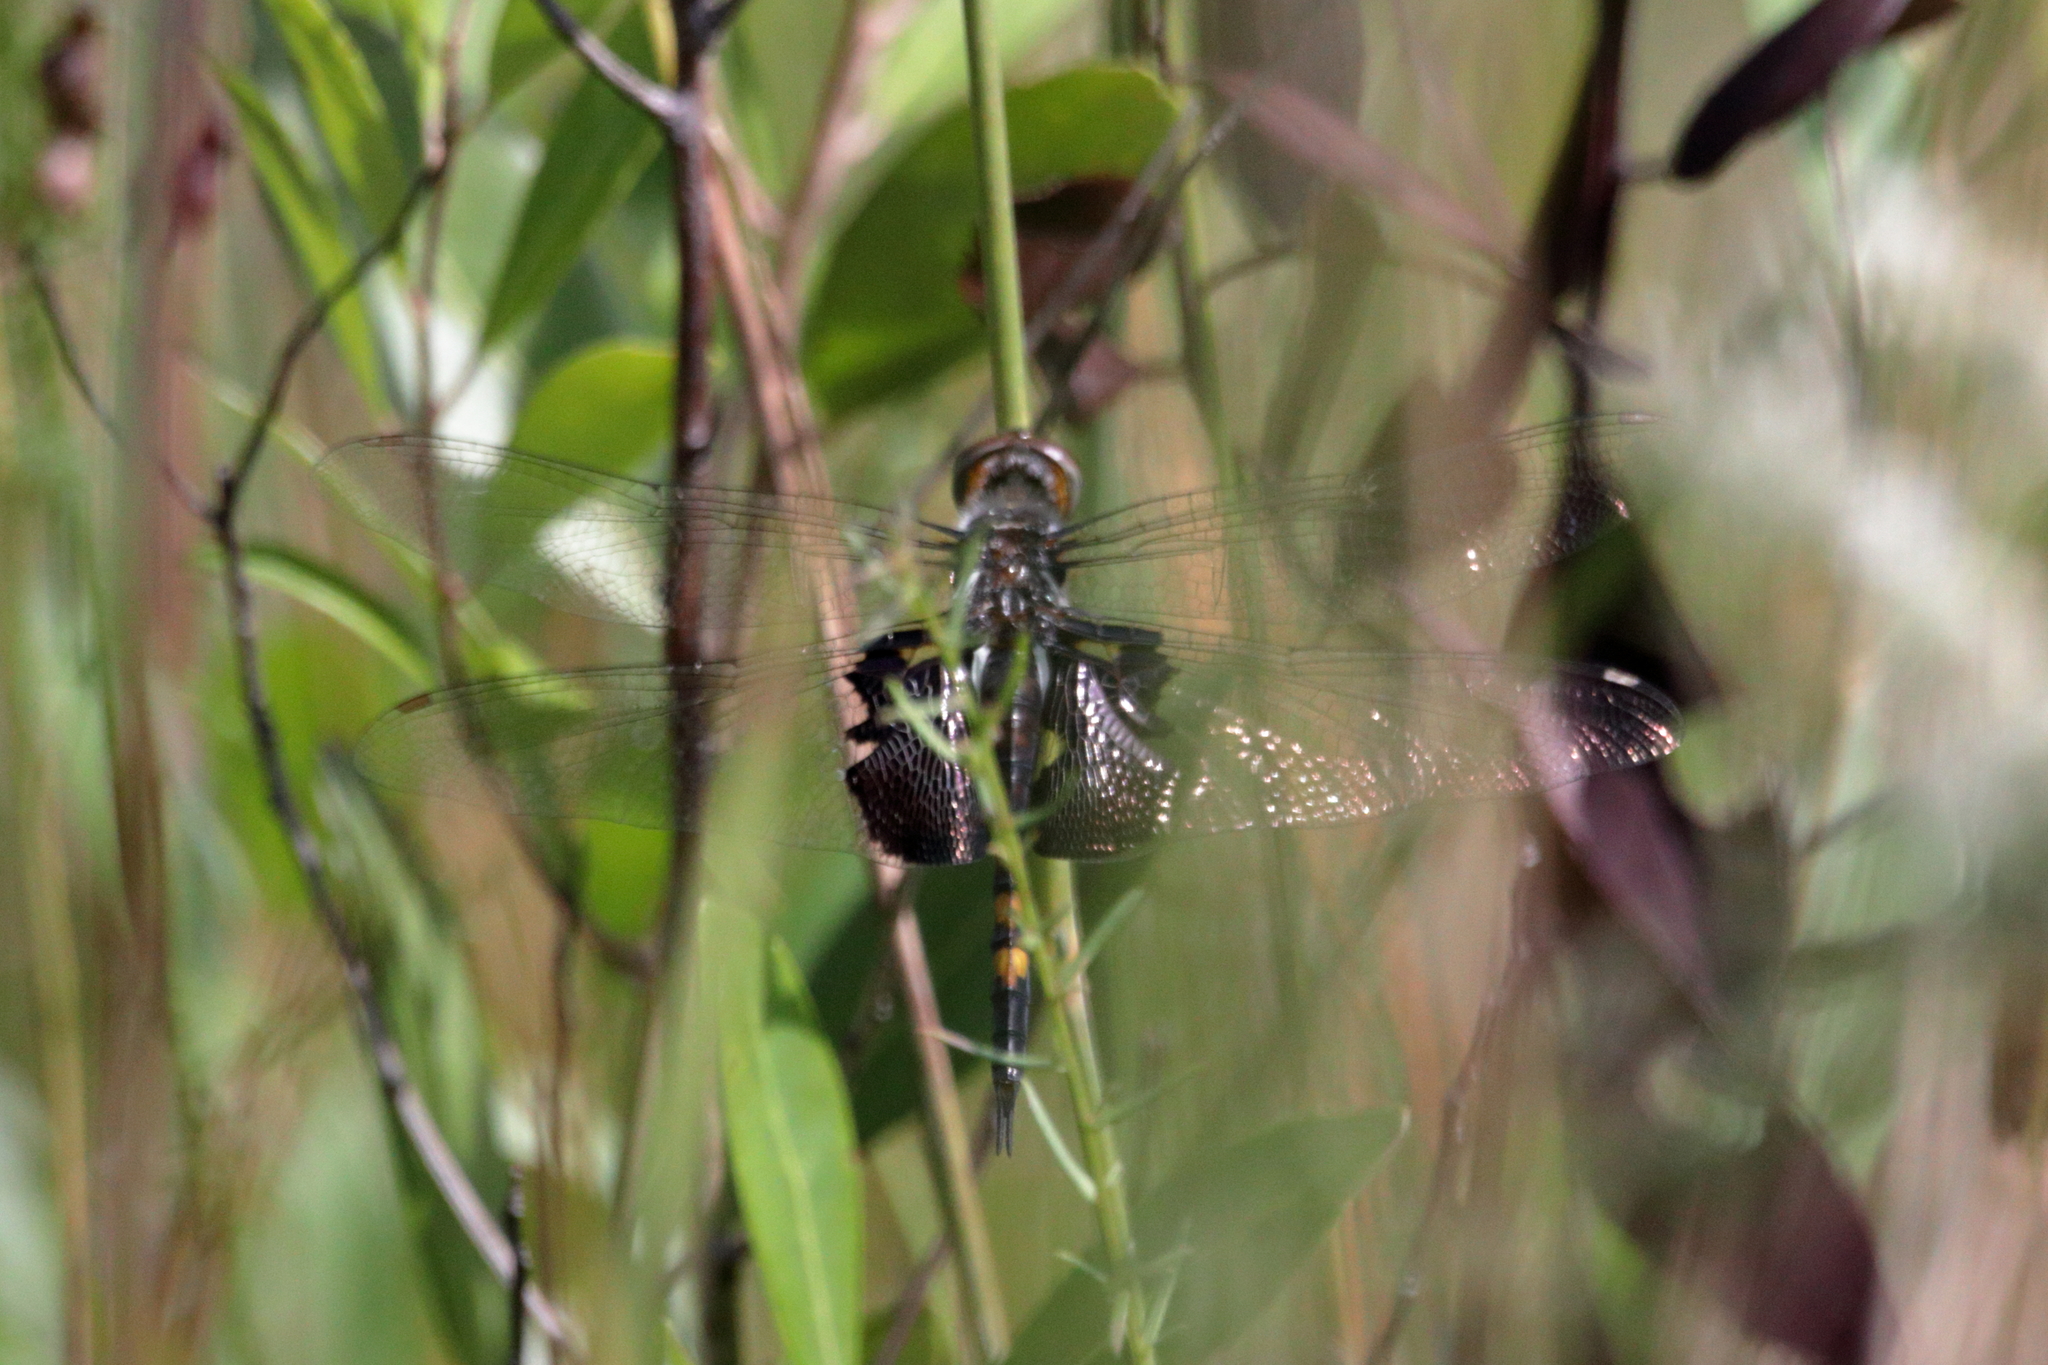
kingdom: Animalia
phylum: Arthropoda
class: Insecta
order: Odonata
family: Libellulidae
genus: Tramea
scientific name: Tramea lacerata
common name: Black saddlebags
